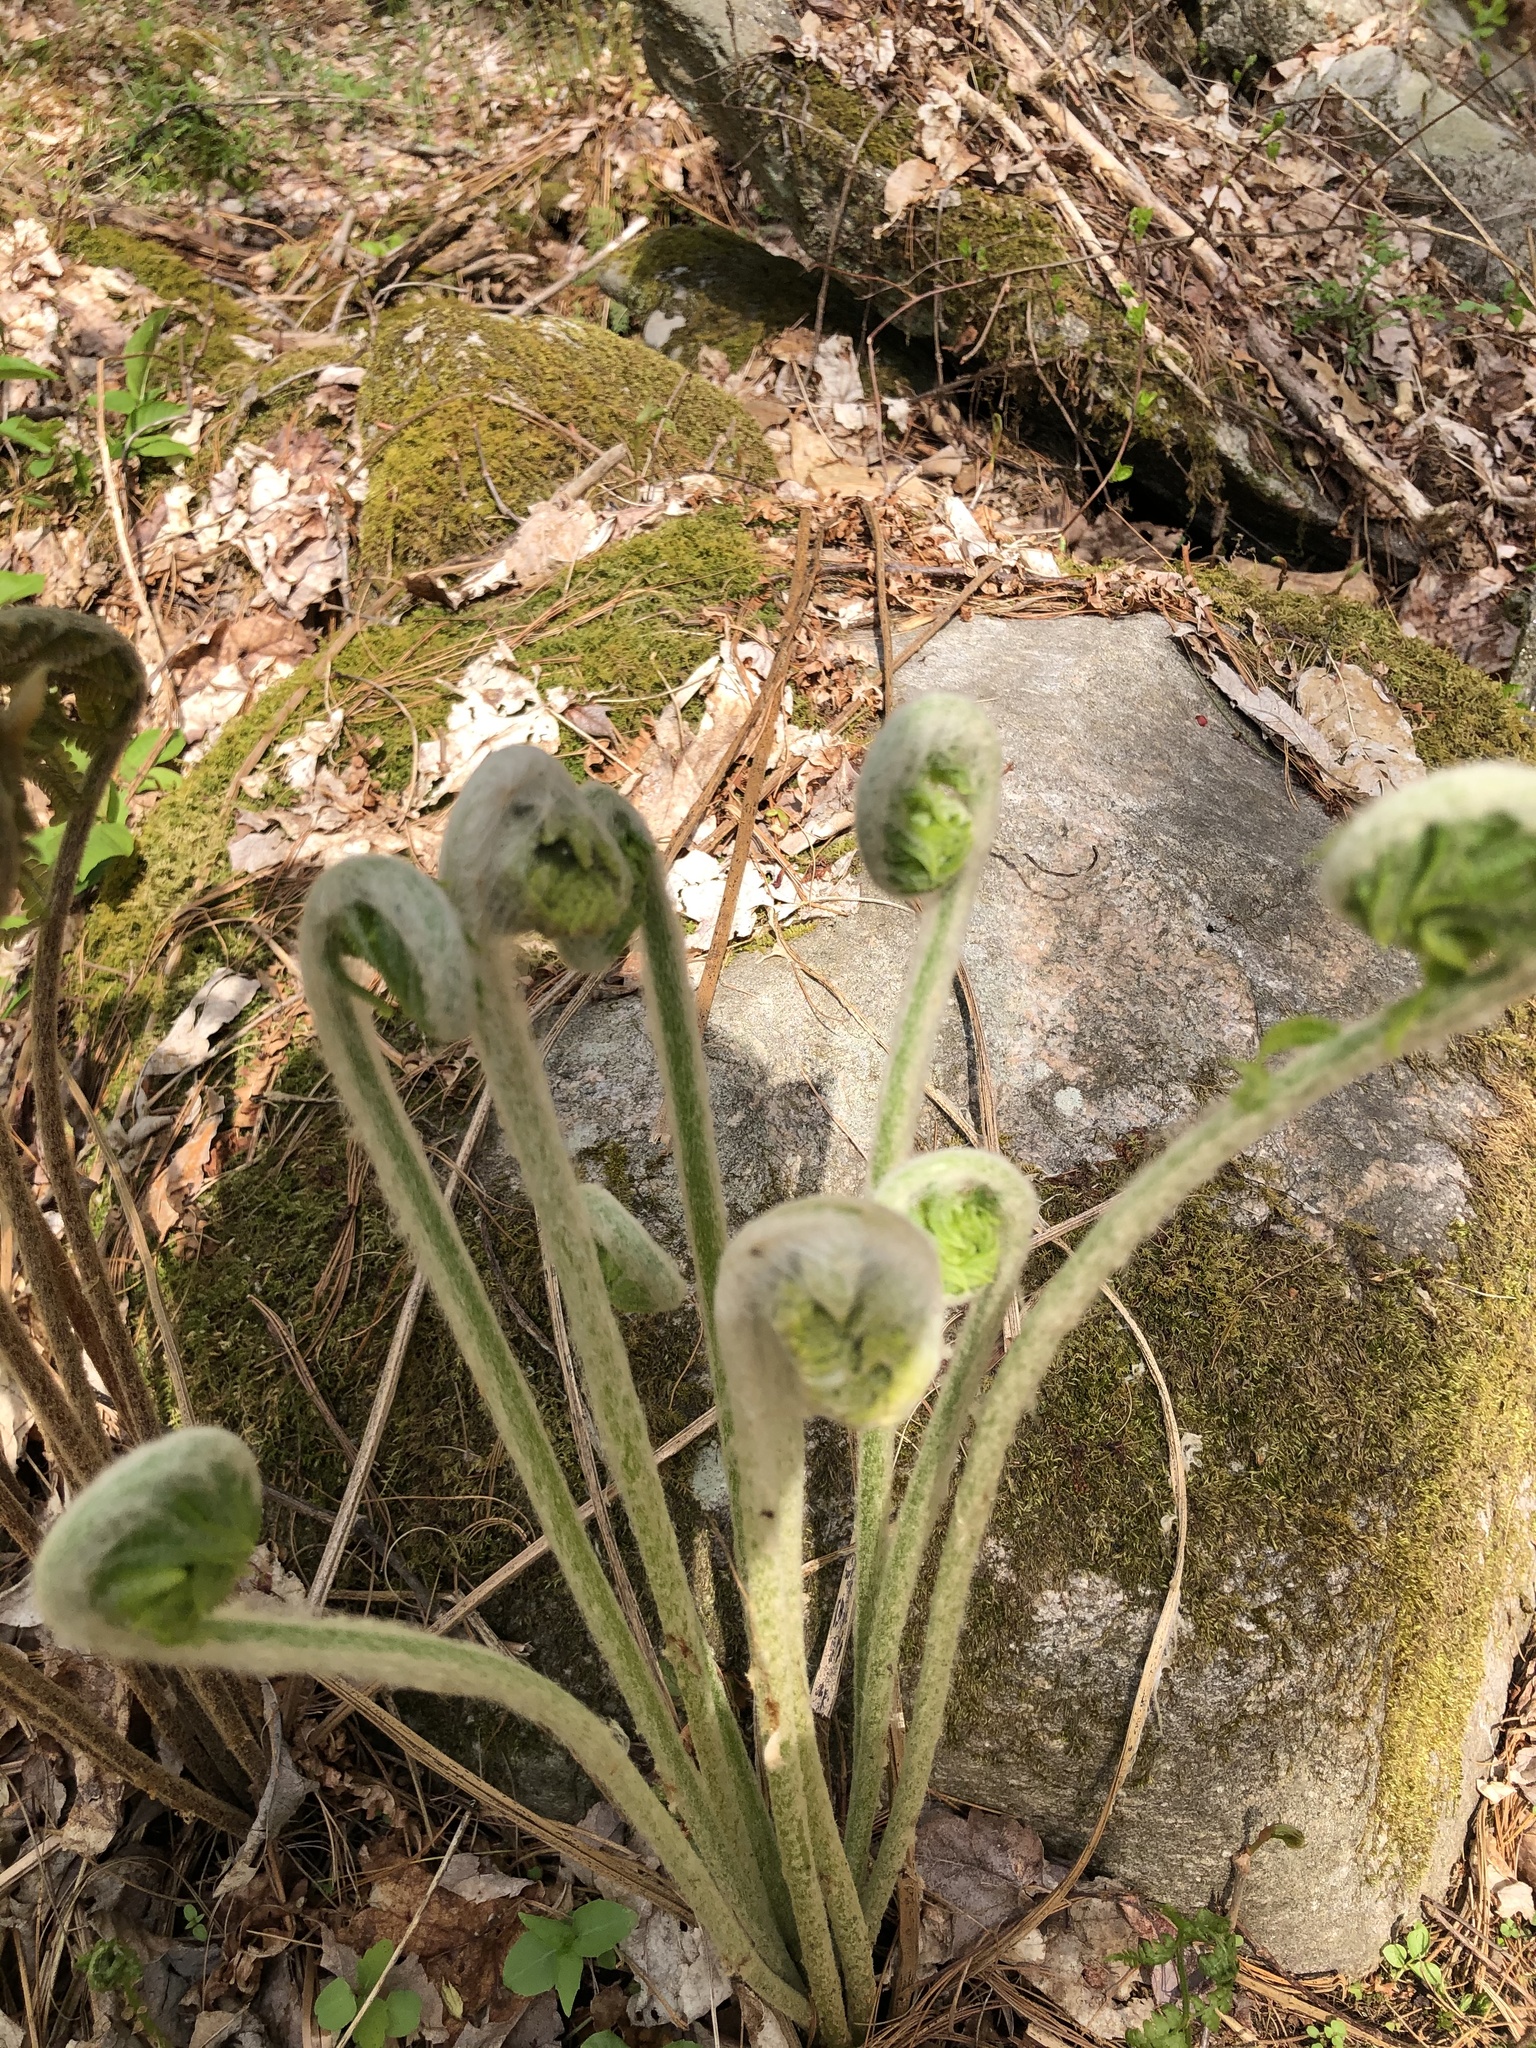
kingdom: Plantae
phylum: Tracheophyta
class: Polypodiopsida
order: Osmundales
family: Osmundaceae
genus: Osmundastrum
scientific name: Osmundastrum cinnamomeum
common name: Cinnamon fern
